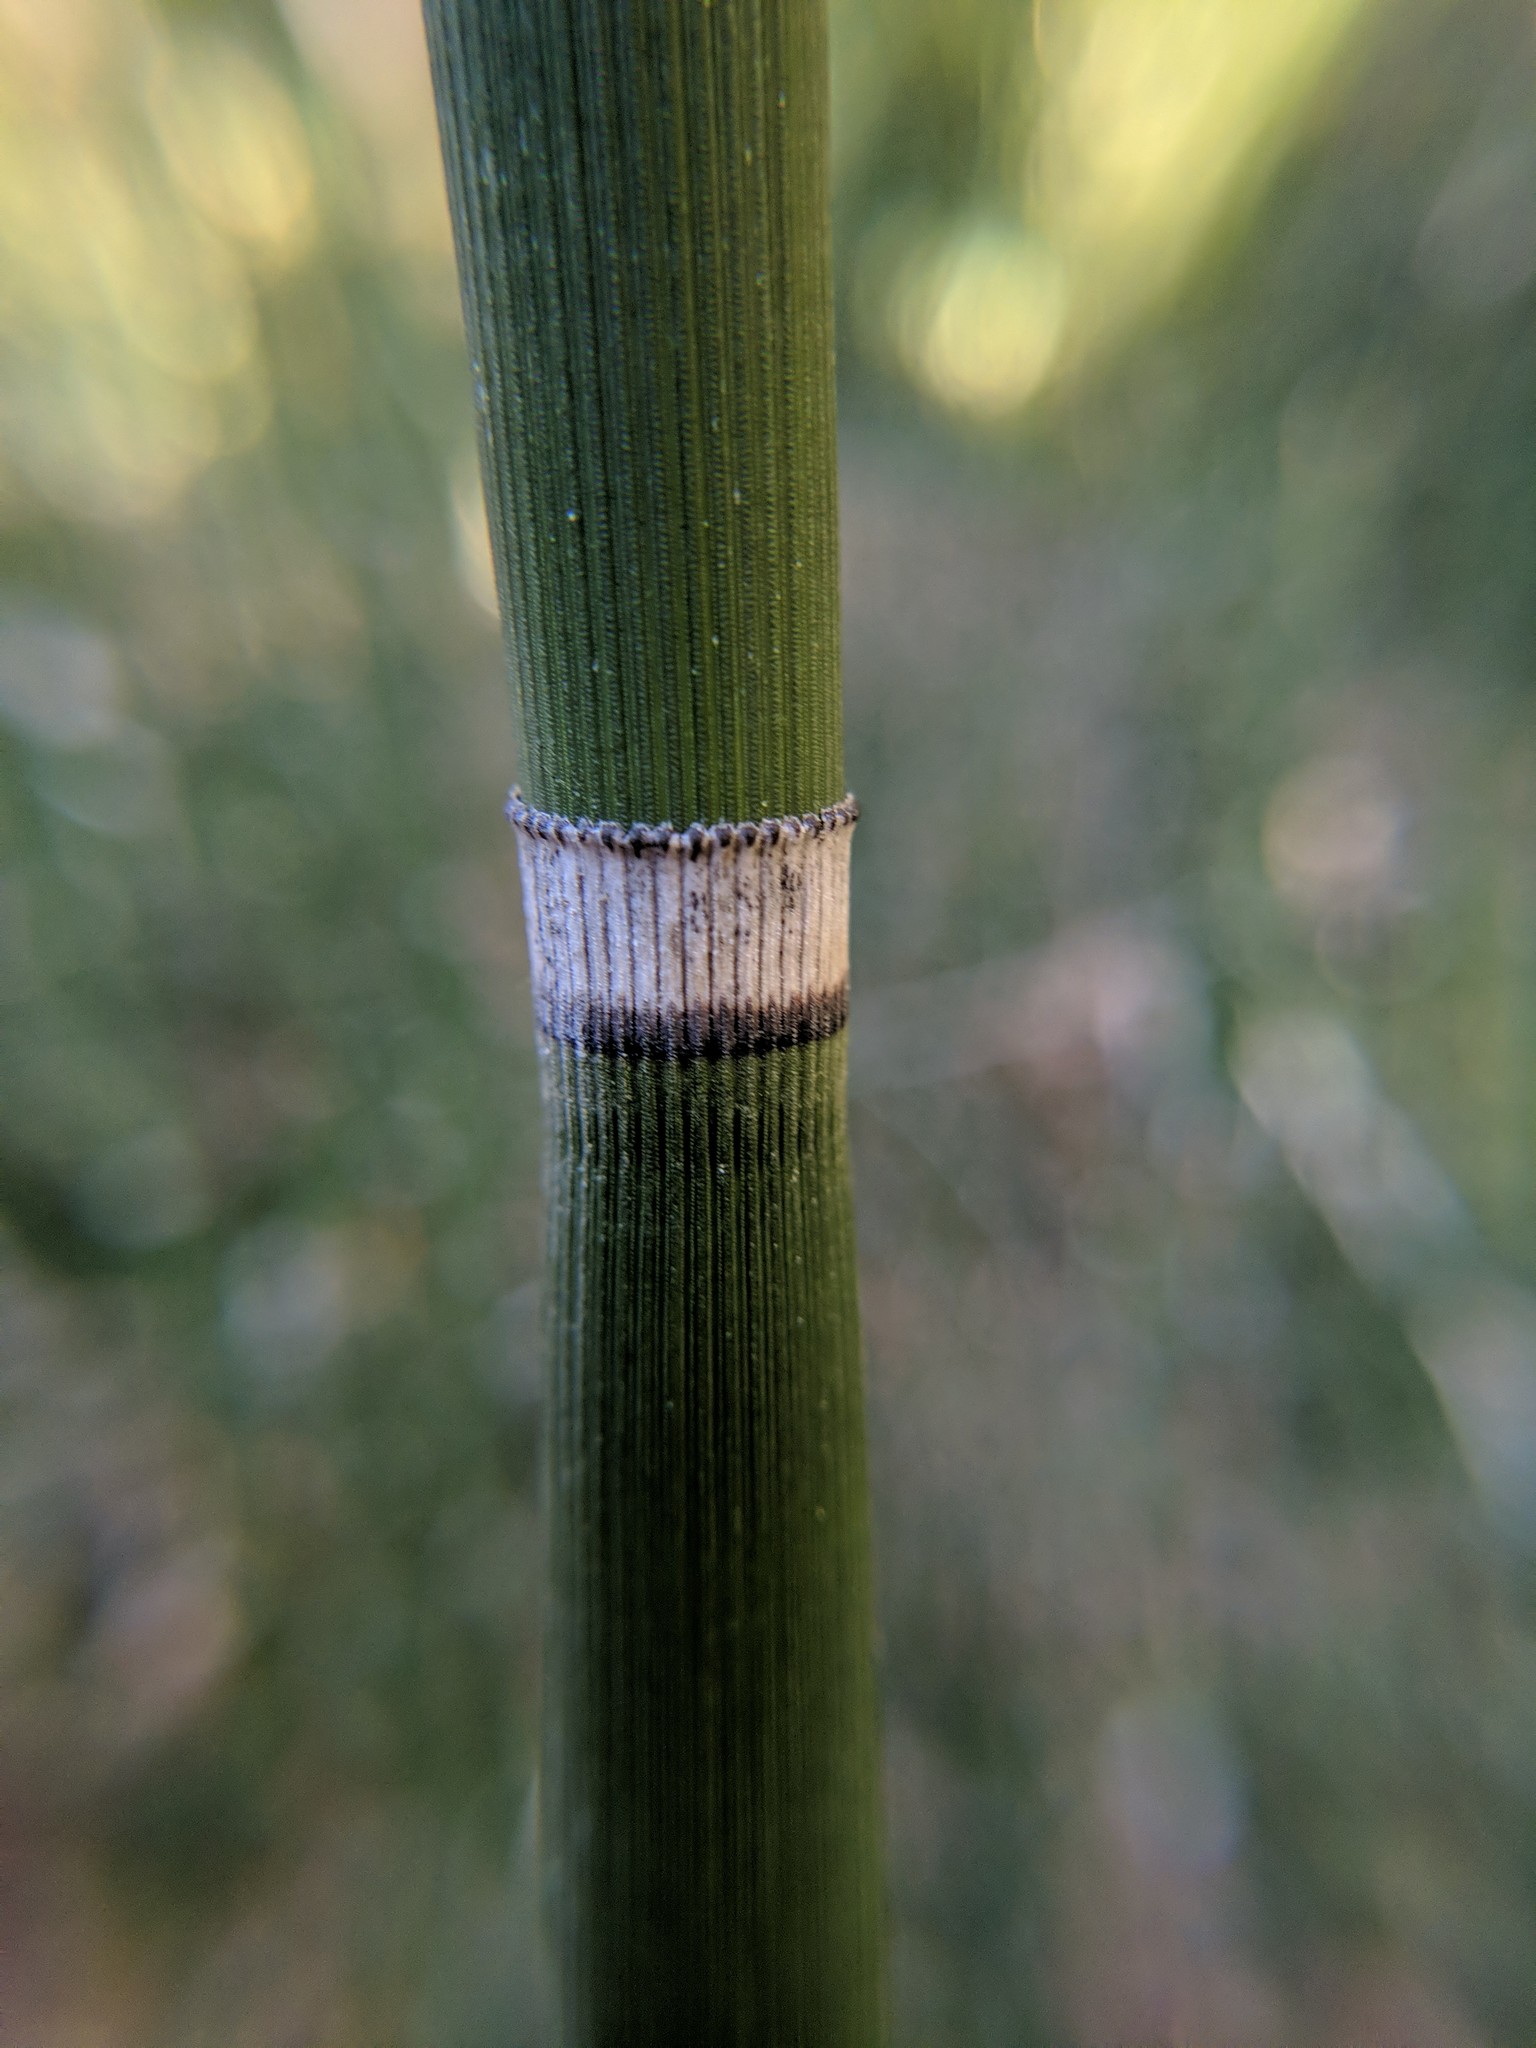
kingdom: Plantae
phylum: Tracheophyta
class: Polypodiopsida
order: Equisetales
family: Equisetaceae
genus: Equisetum
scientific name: Equisetum praealtum
